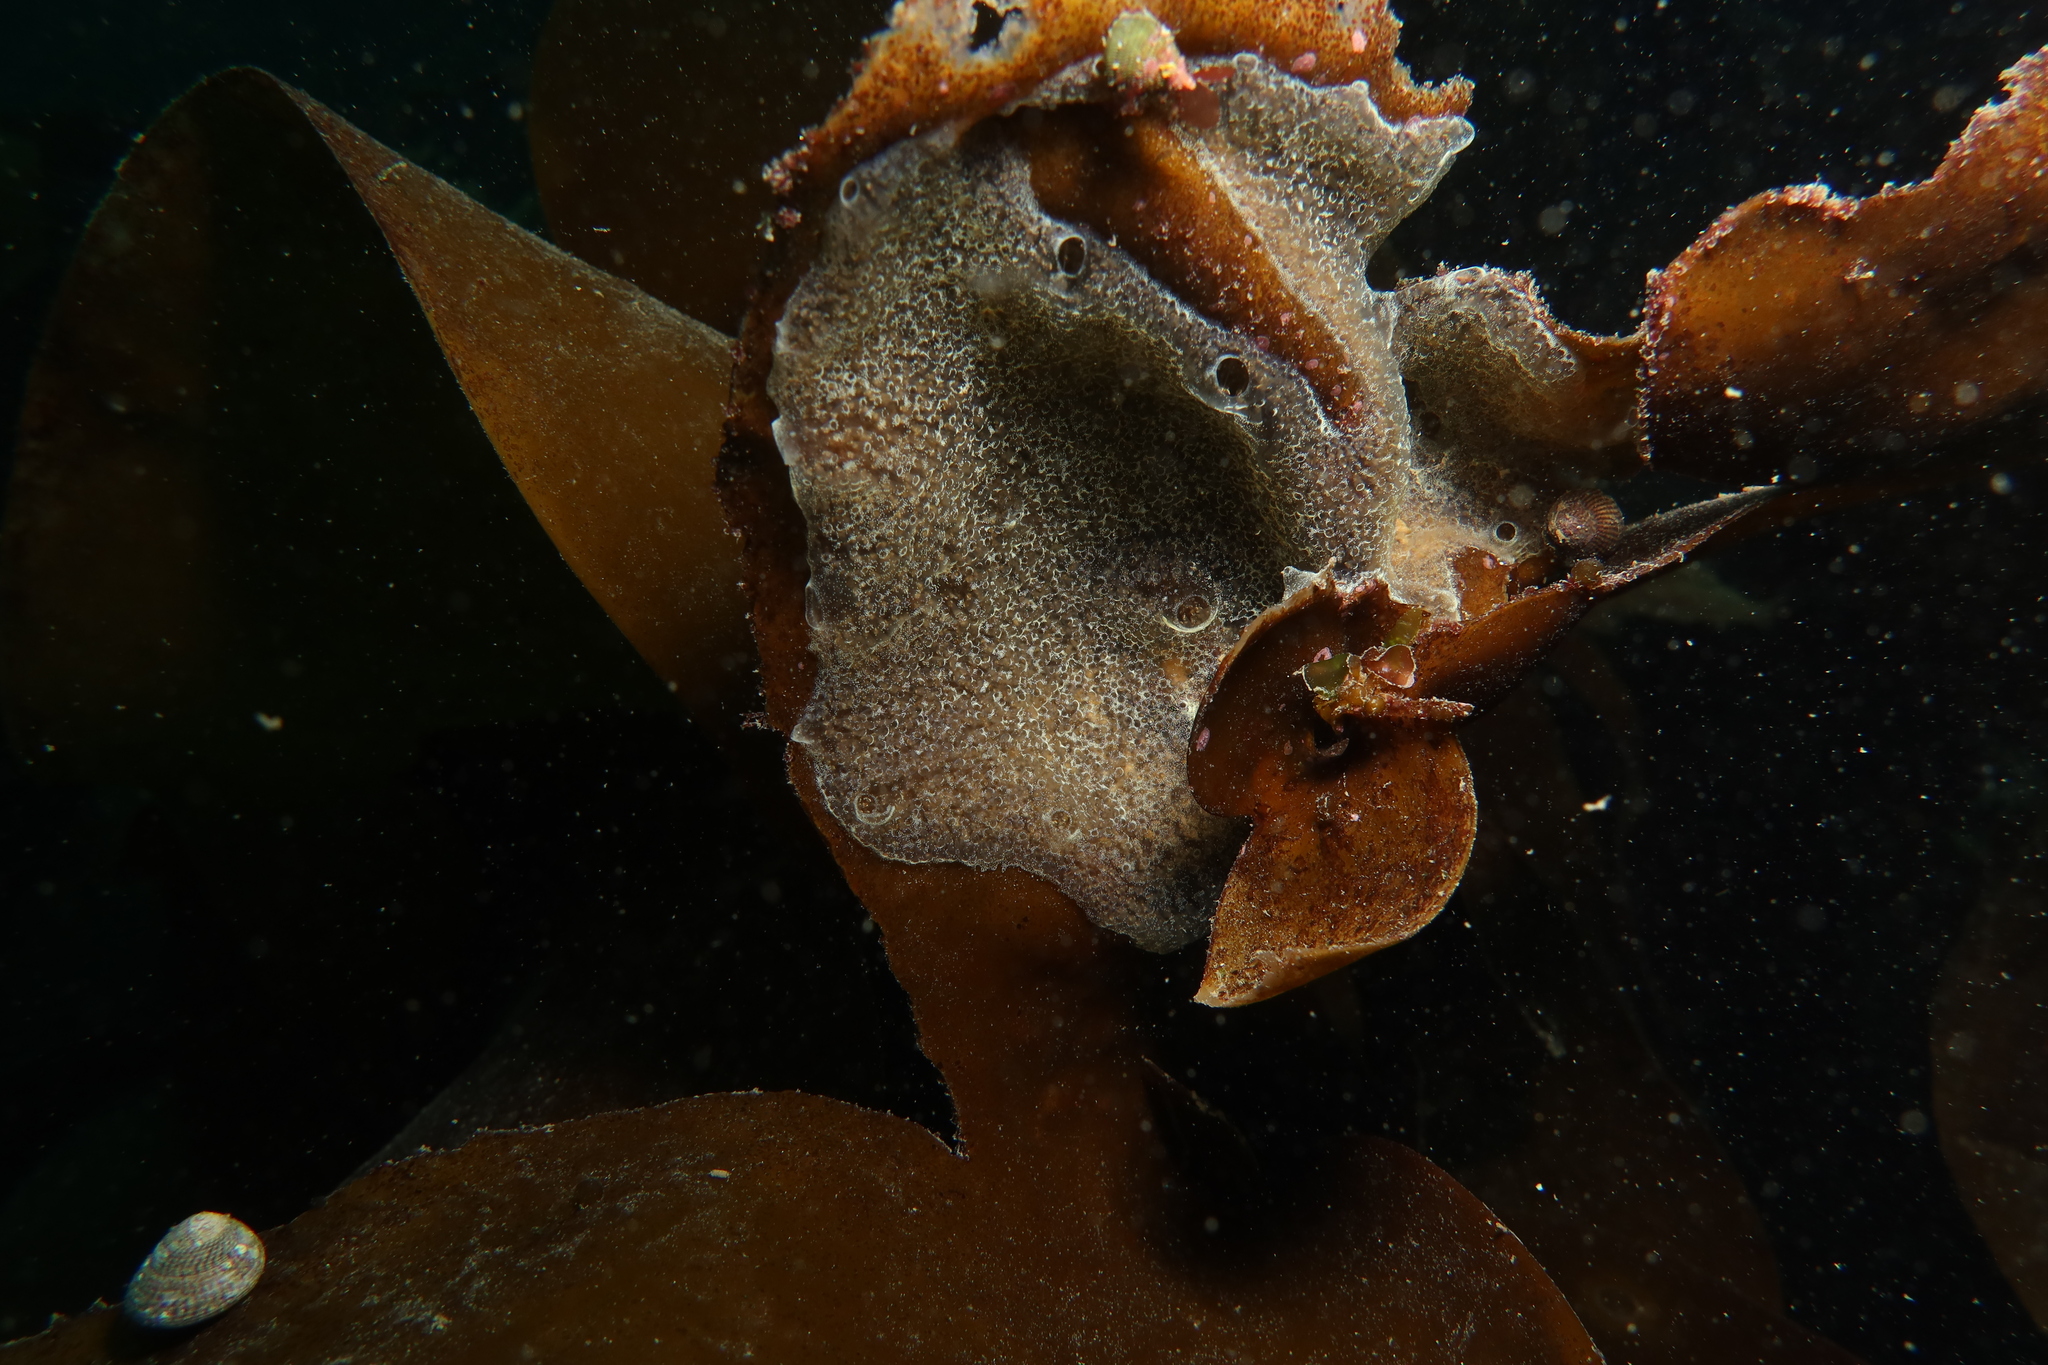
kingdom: Animalia
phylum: Chordata
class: Ascidiacea
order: Aplousobranchia
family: Didemnidae
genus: Diplosoma
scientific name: Diplosoma listerianum
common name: Compound sea squirt
